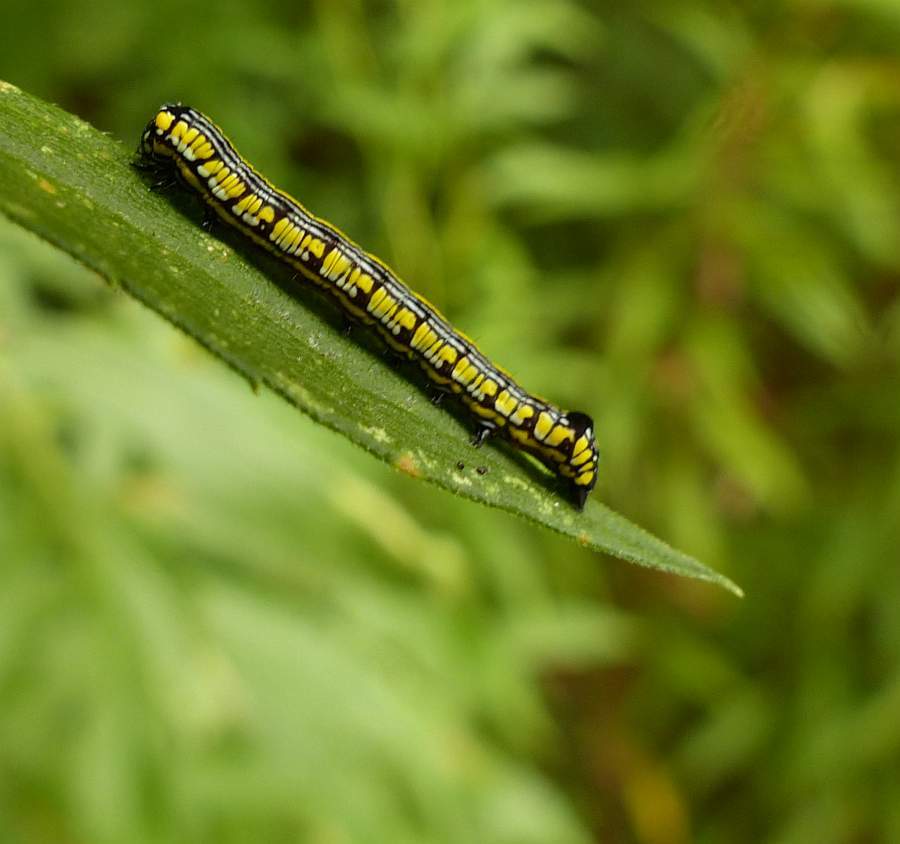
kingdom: Animalia
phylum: Arthropoda
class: Insecta
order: Lepidoptera
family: Noctuidae
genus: Cucullia
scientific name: Cucullia convexipennis
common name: Brown-hooded owlet
